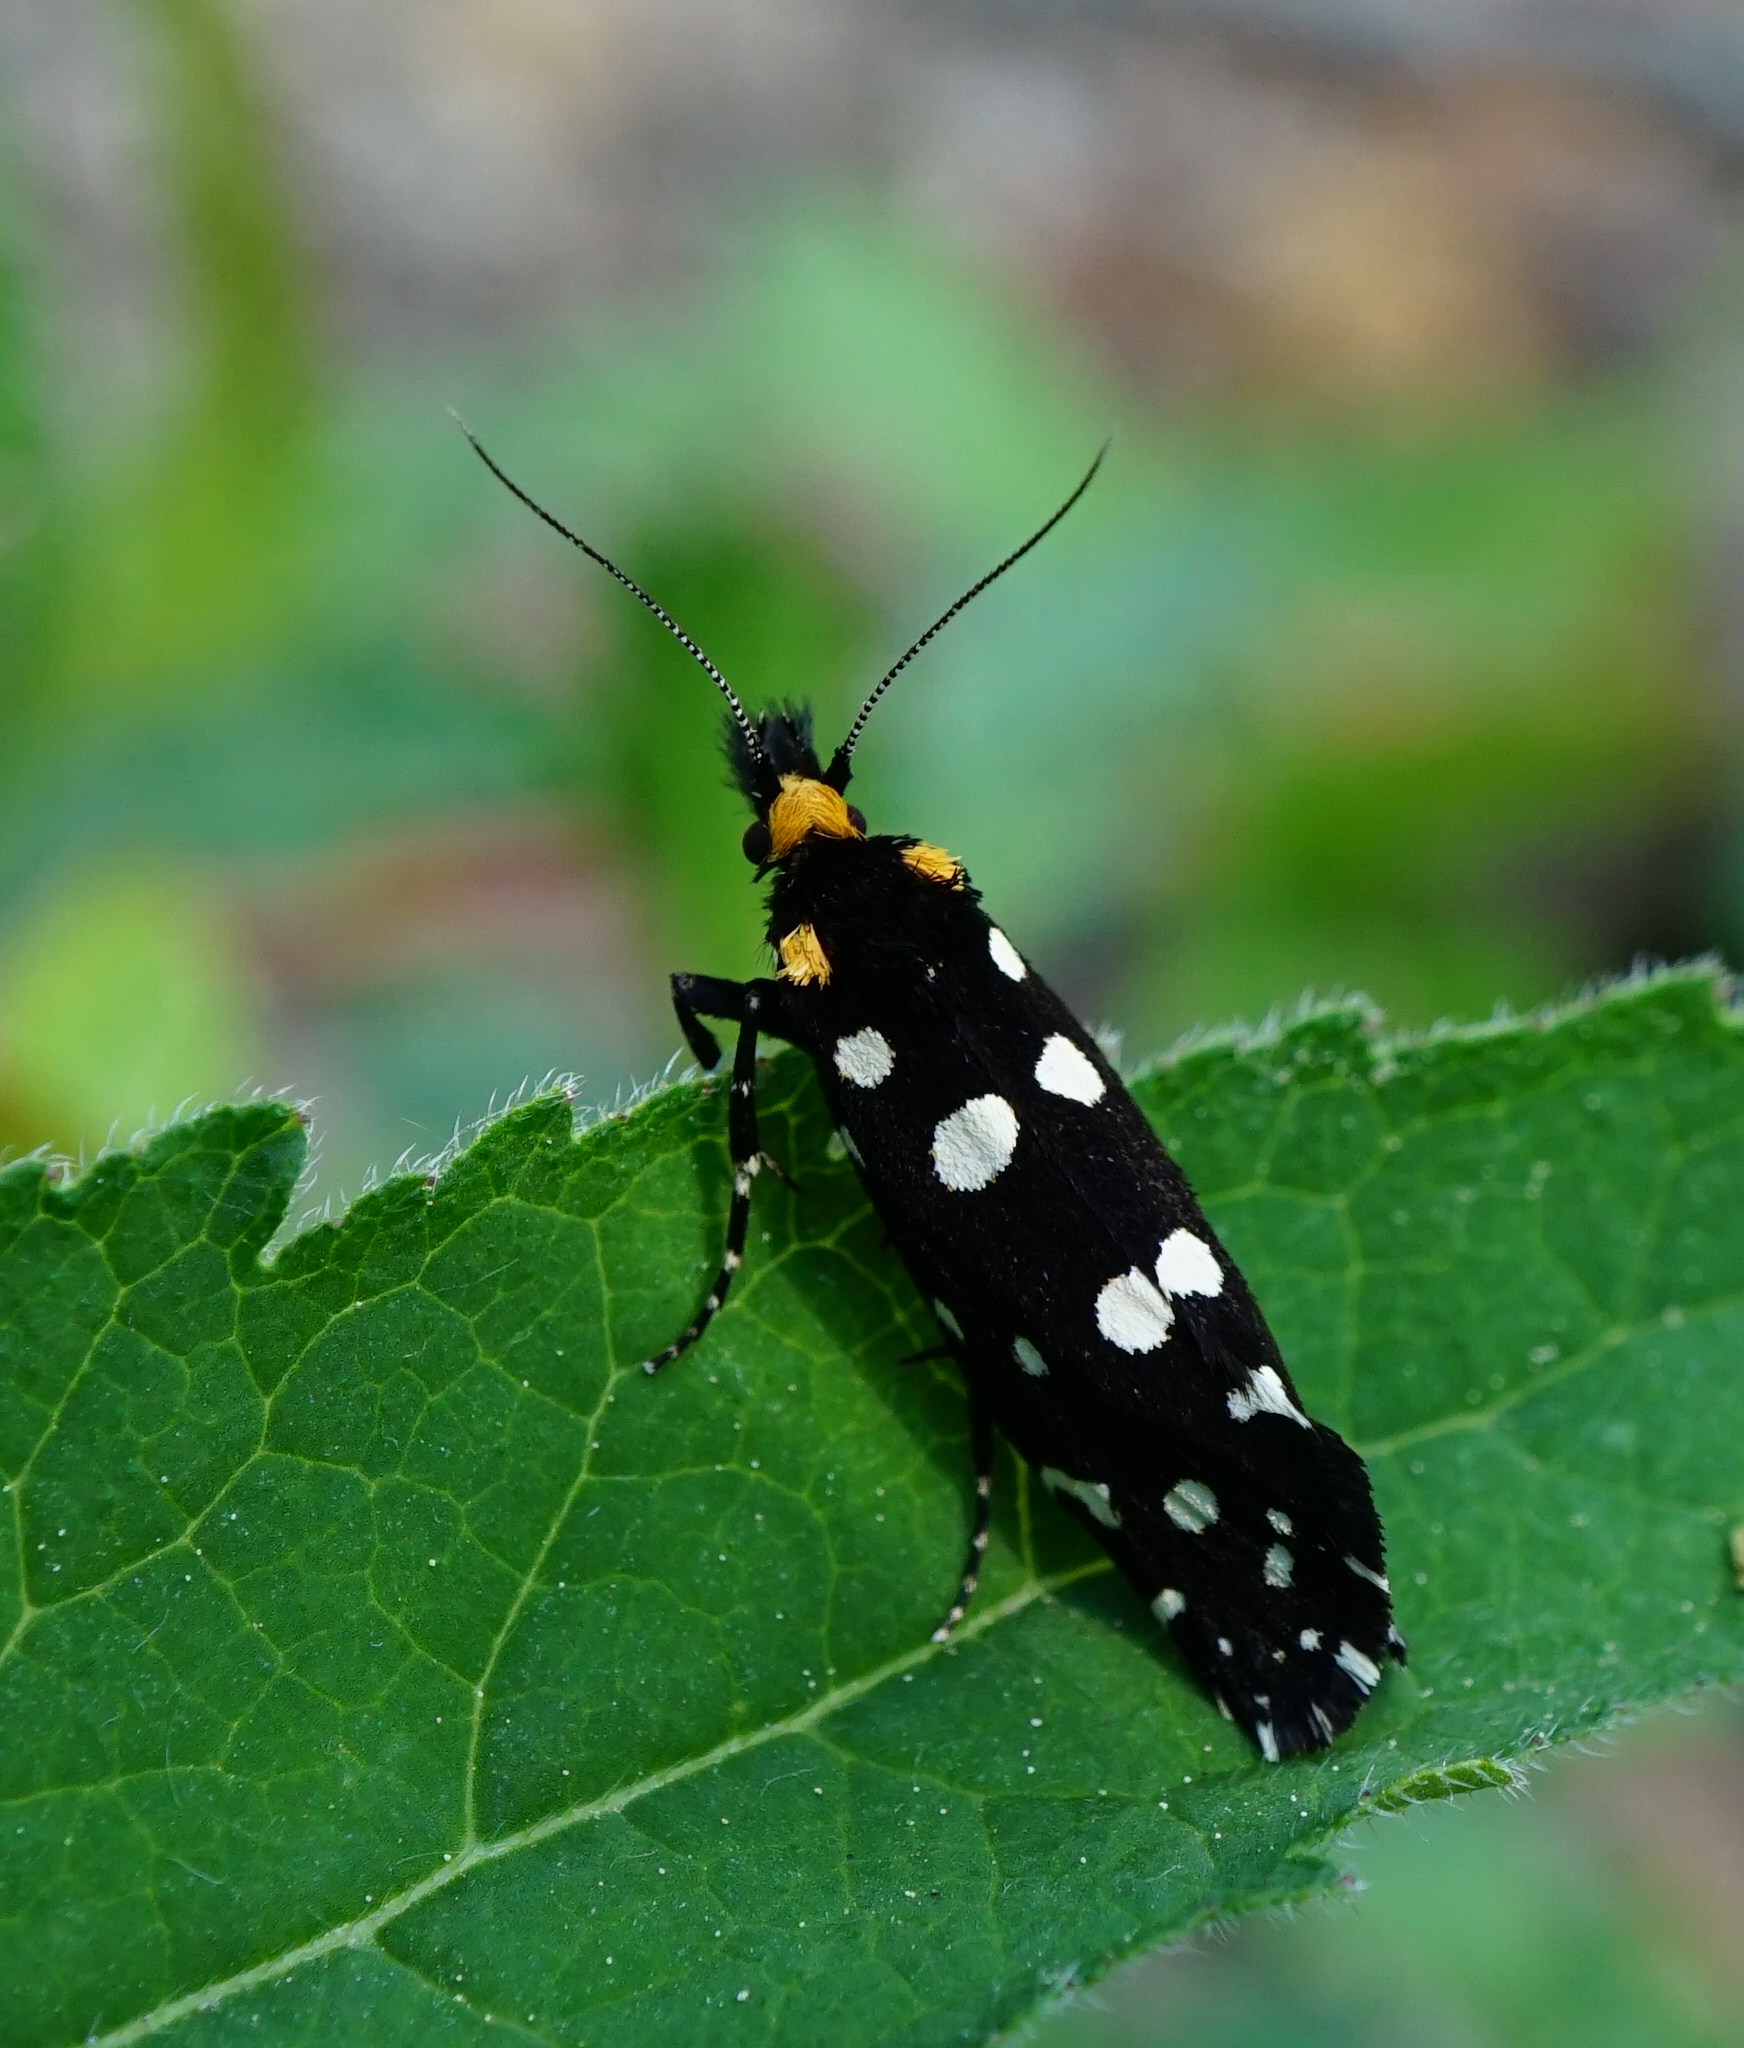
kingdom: Animalia
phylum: Arthropoda
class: Insecta
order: Lepidoptera
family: Tineidae
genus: Euplocamus
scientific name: Euplocamus anthracinalis
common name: Black clothes
